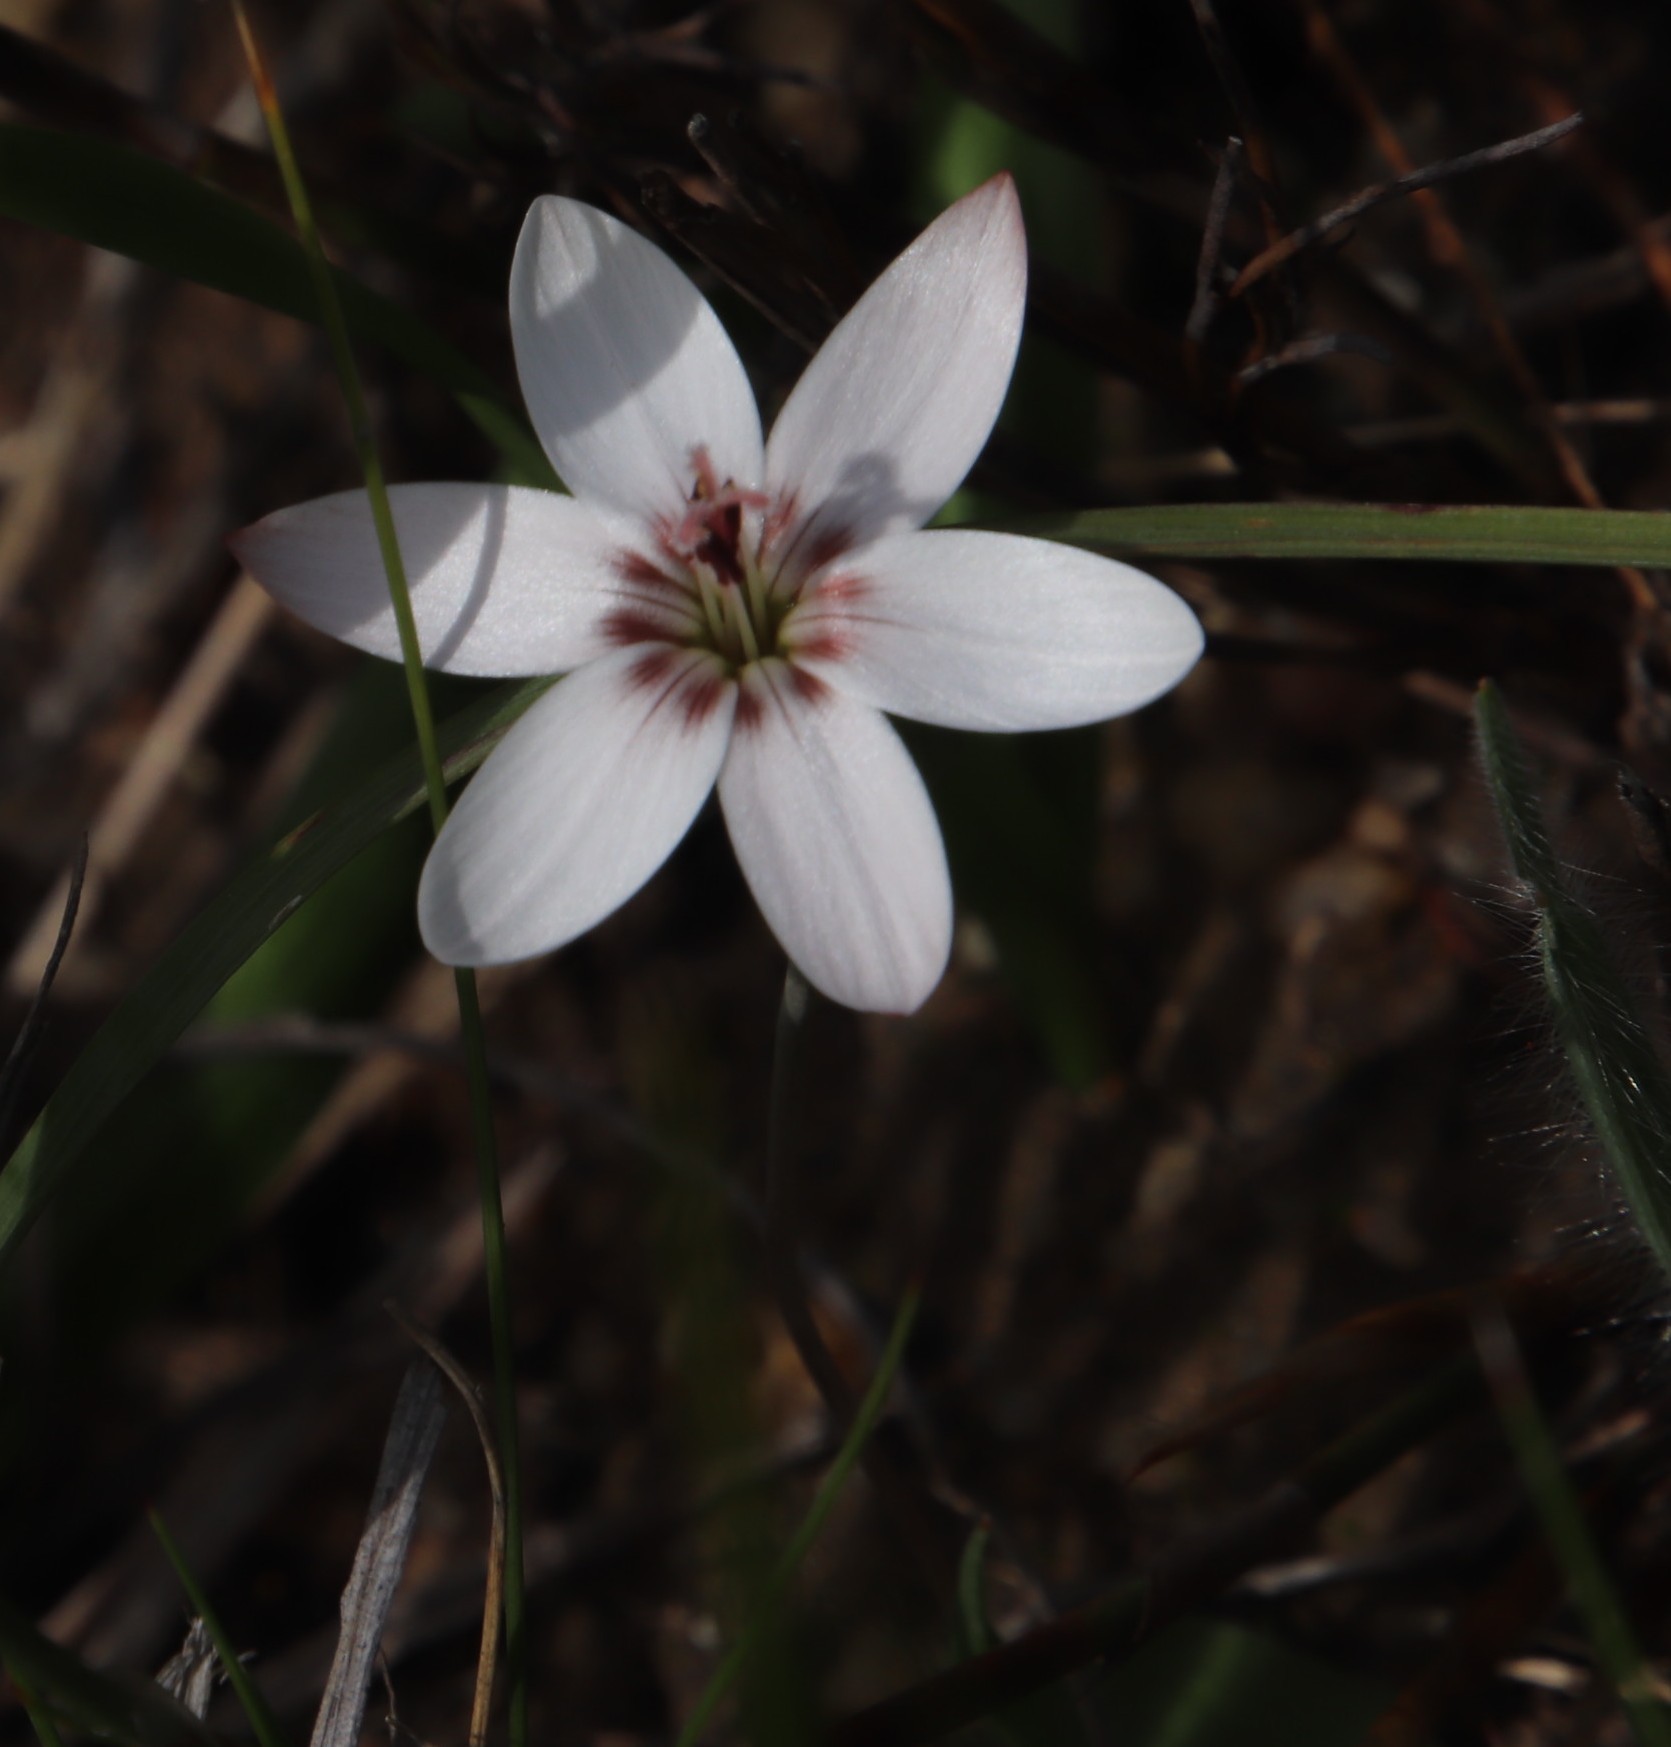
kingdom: Plantae
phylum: Tracheophyta
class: Liliopsida
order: Asparagales
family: Iridaceae
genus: Geissorhiza
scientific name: Geissorhiza ovata
